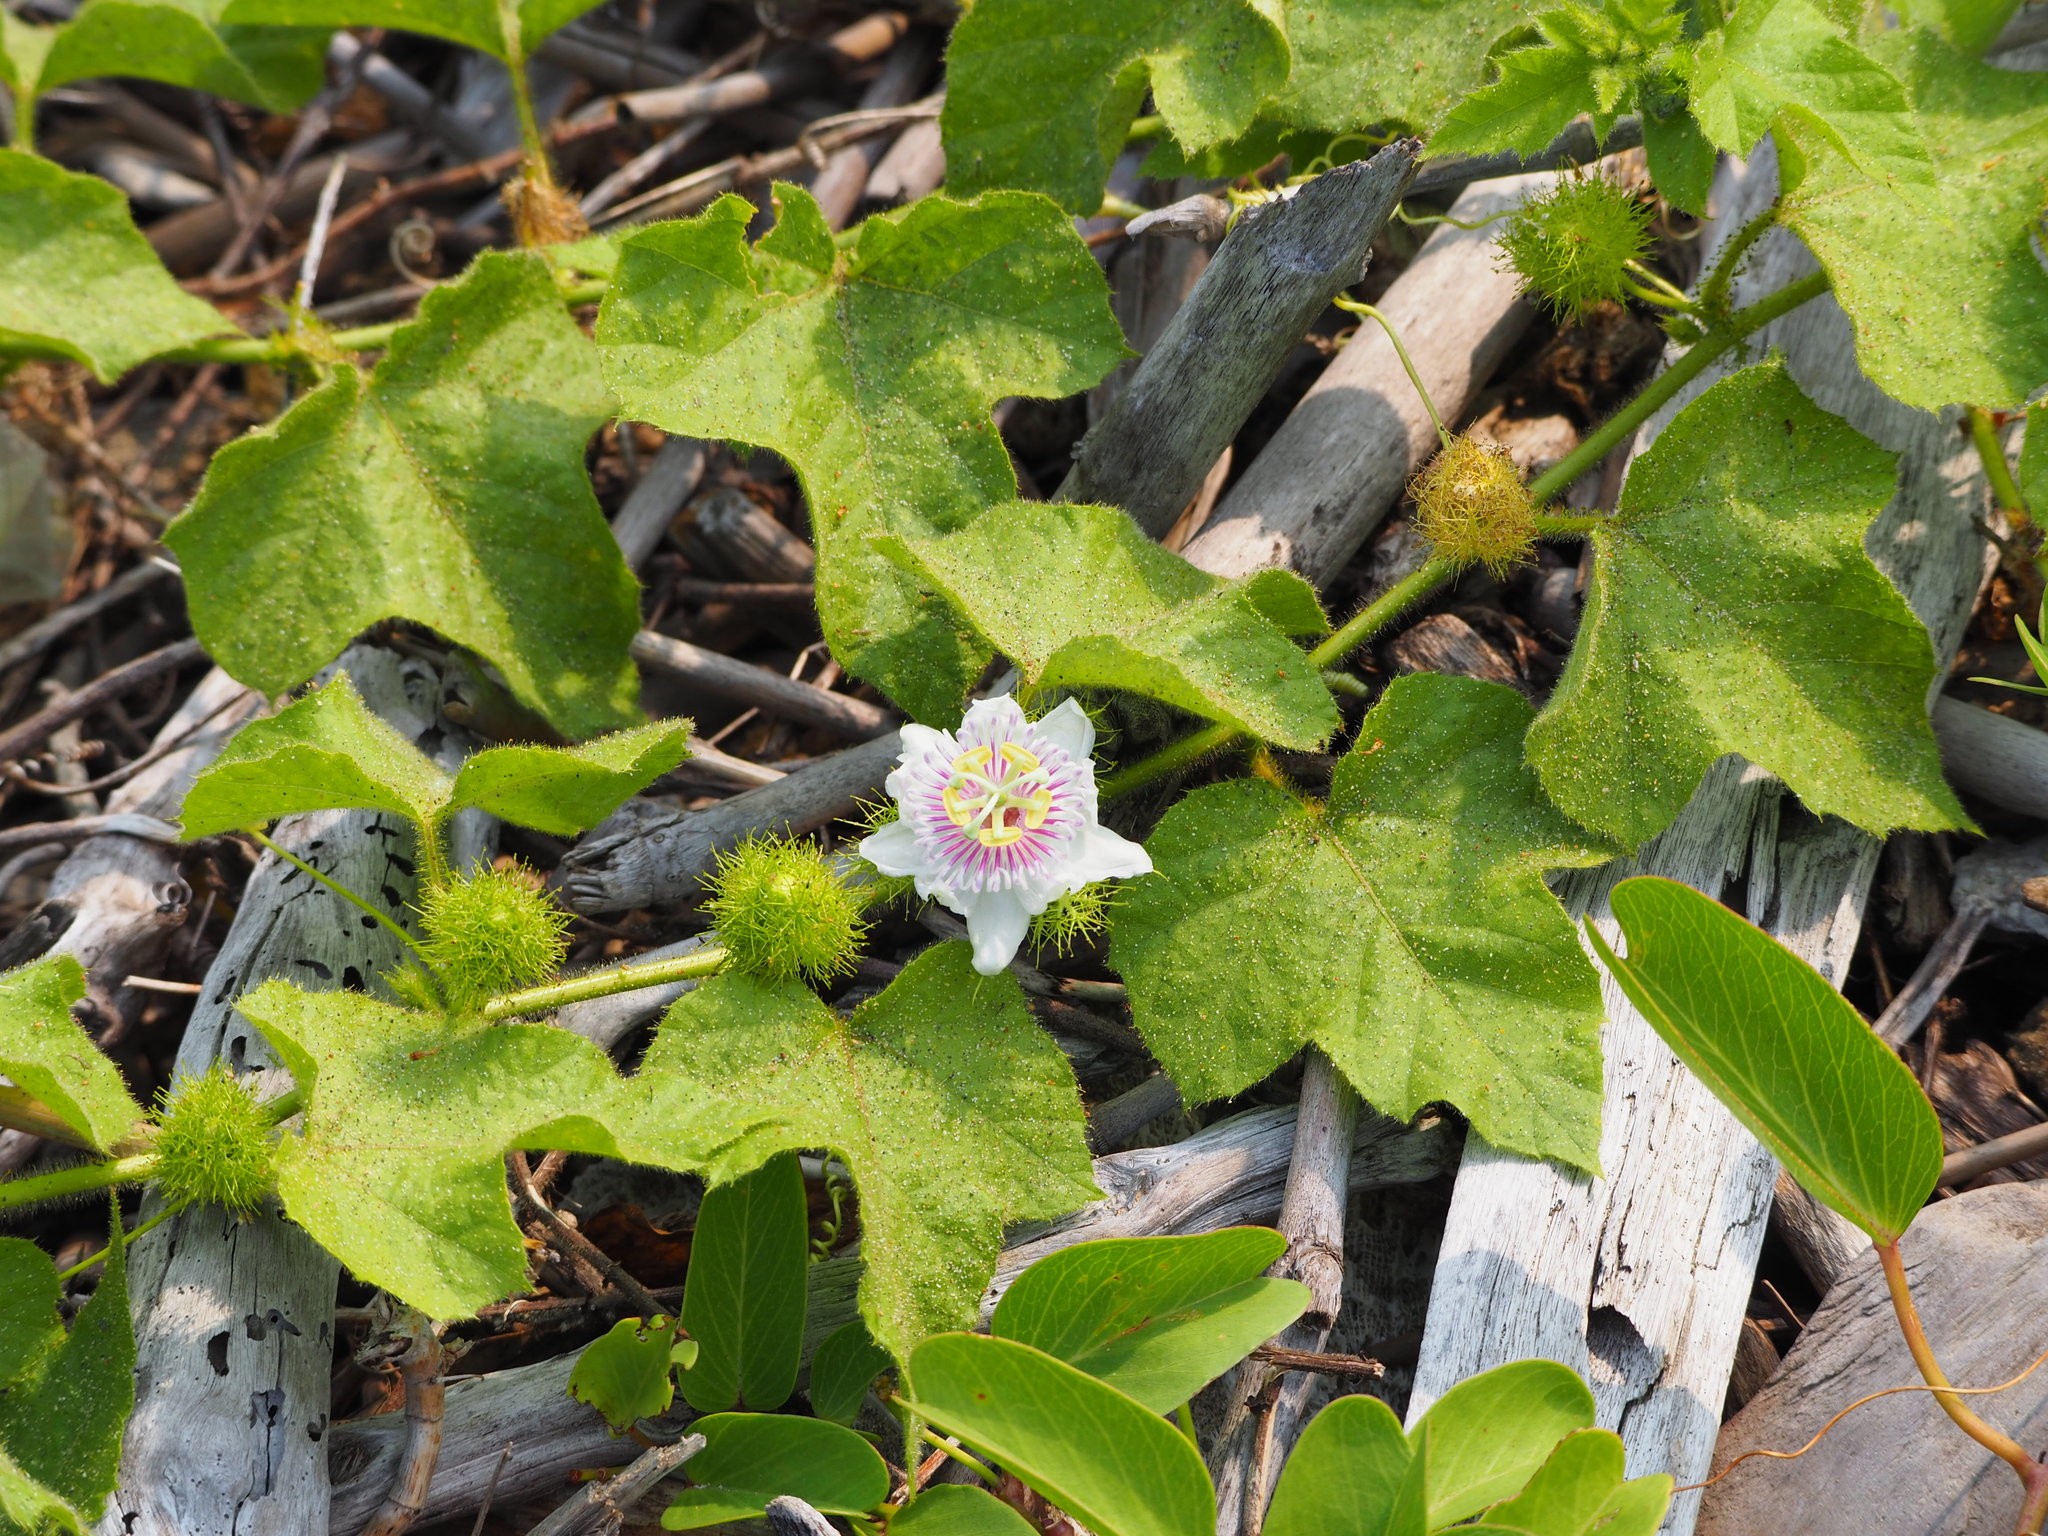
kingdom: Plantae
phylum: Tracheophyta
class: Magnoliopsida
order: Malpighiales
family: Passifloraceae
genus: Passiflora
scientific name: Passiflora vesicaria
